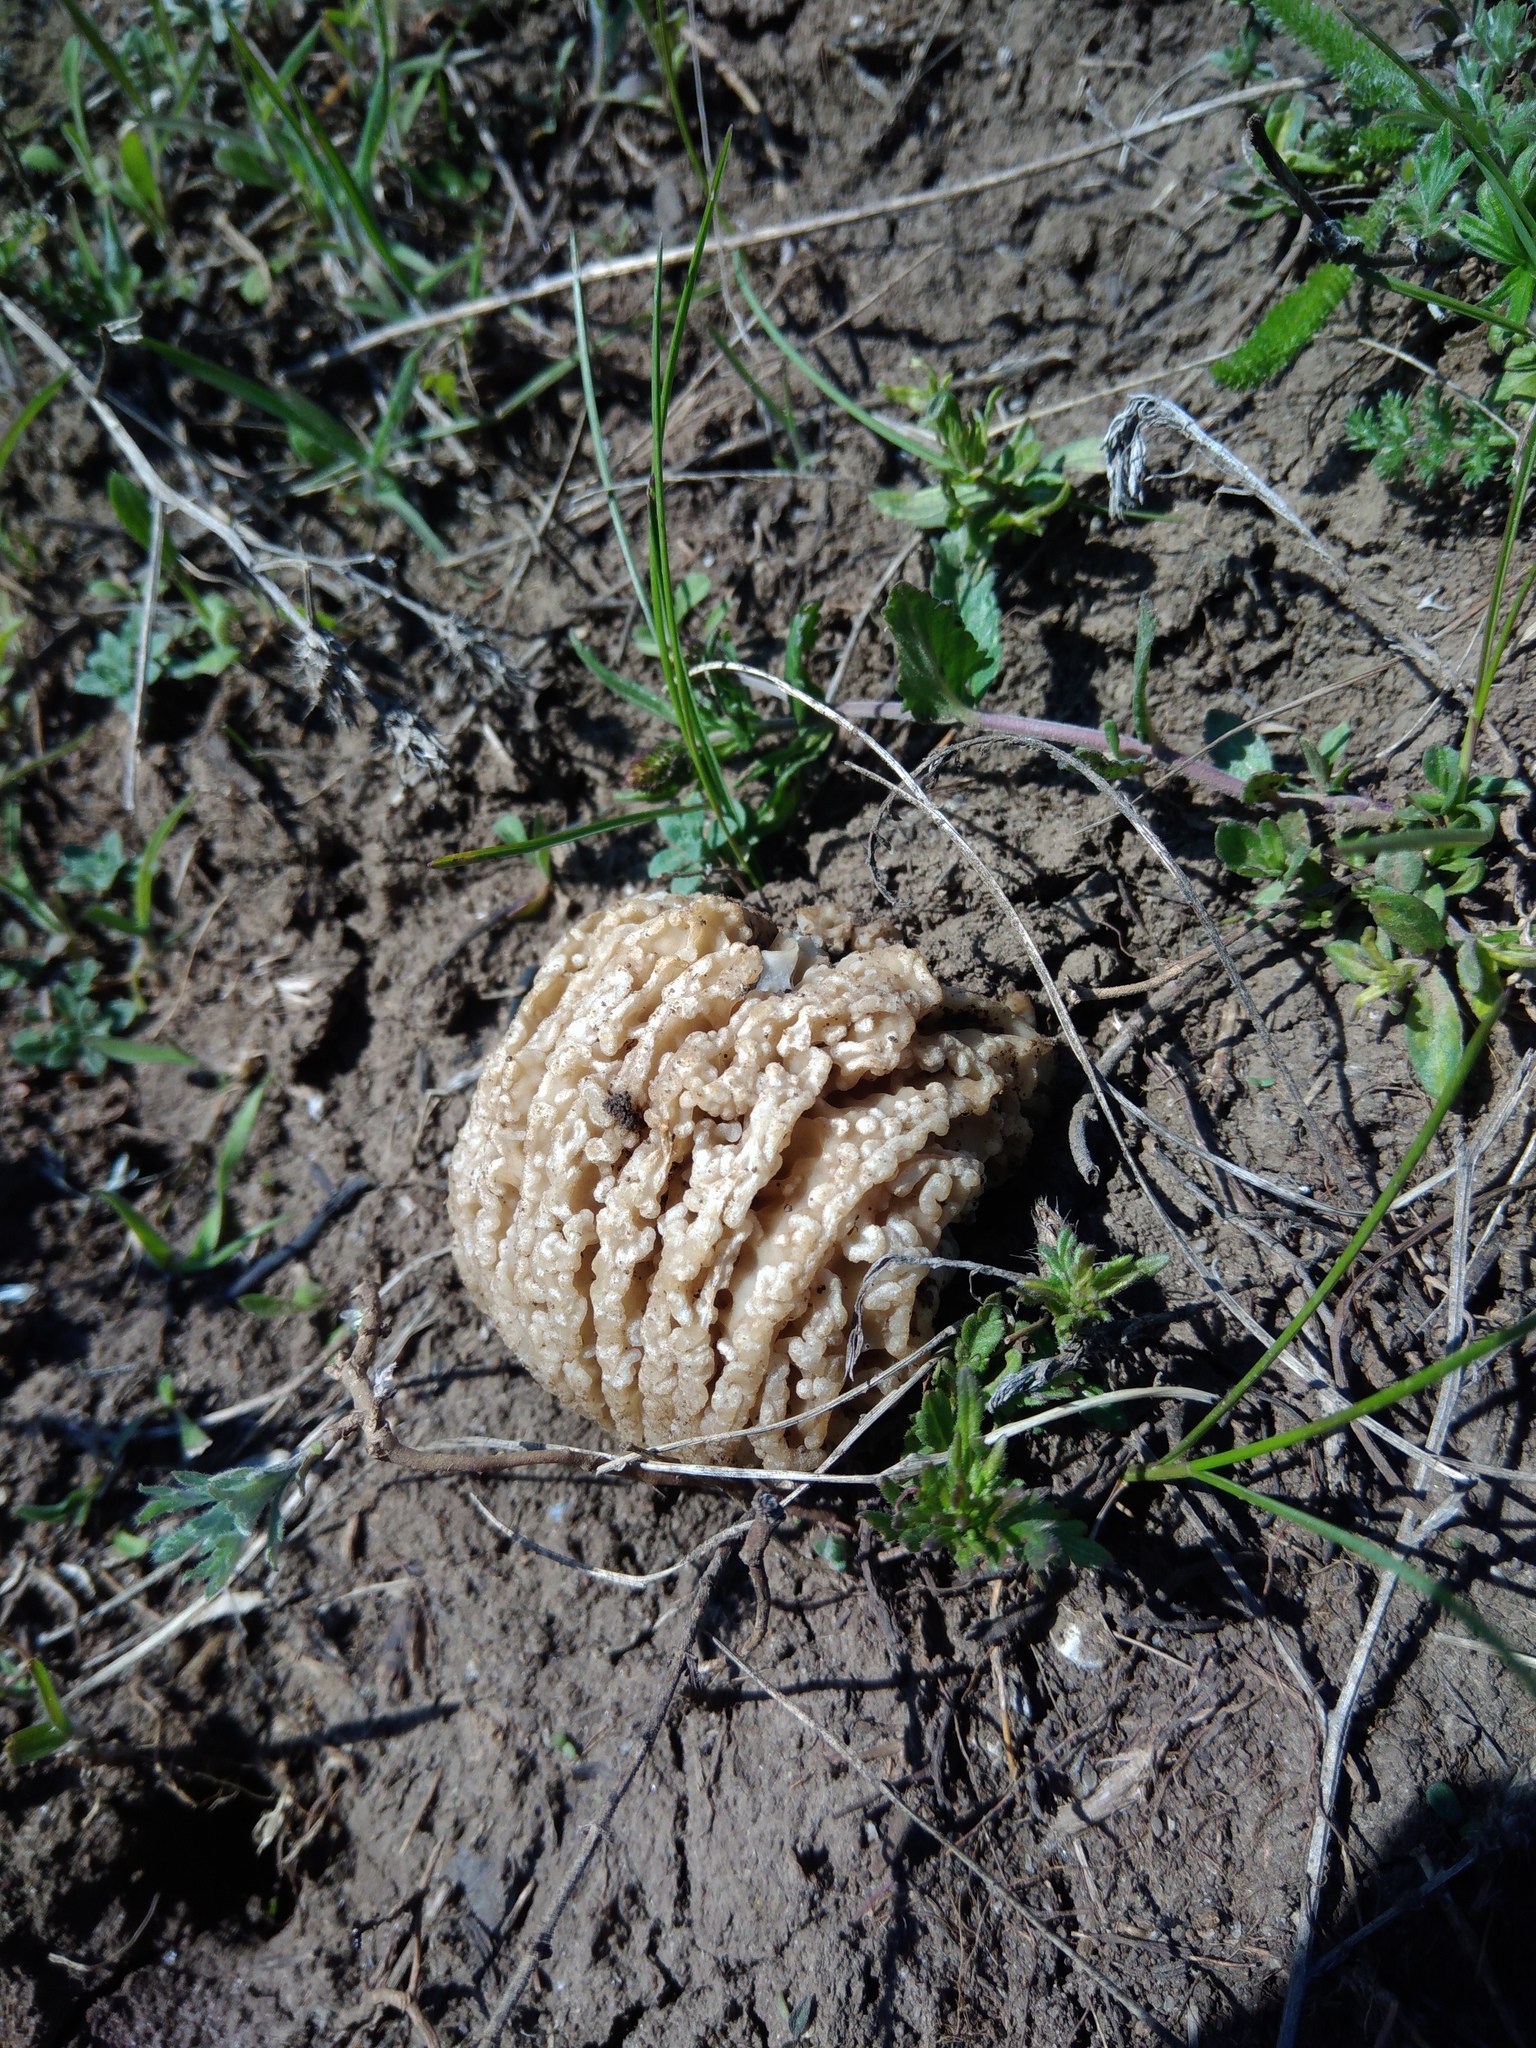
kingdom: Fungi
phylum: Ascomycota
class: Pezizomycetes
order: Pezizales
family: Morchellaceae
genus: Morchella
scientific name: Morchella steppicola
